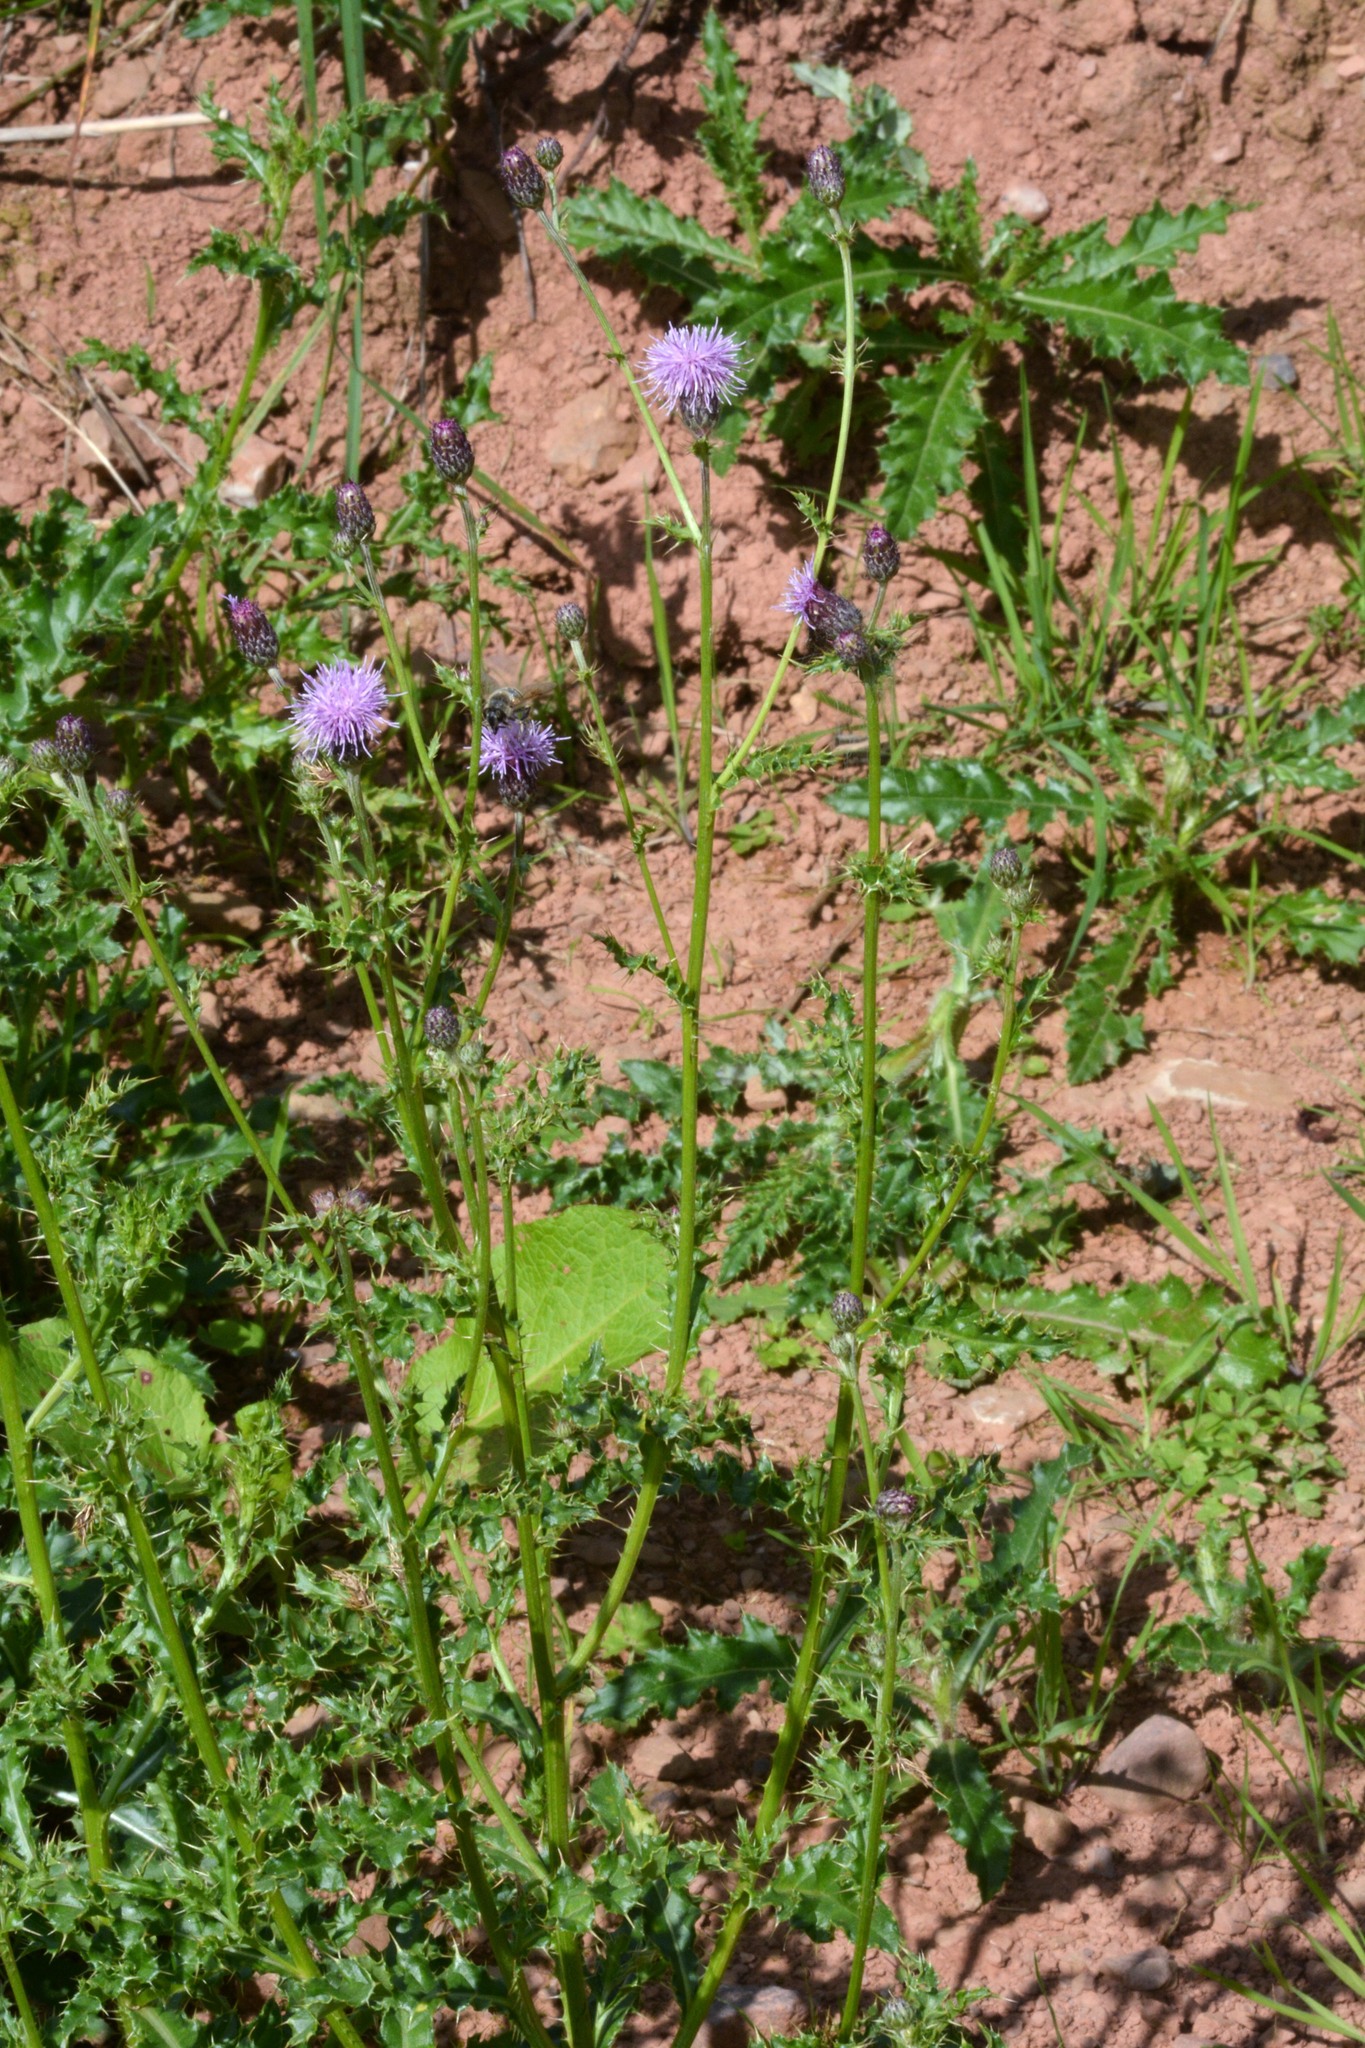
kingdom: Plantae
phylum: Tracheophyta
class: Magnoliopsida
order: Asterales
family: Asteraceae
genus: Cirsium
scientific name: Cirsium arvense
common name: Creeping thistle
